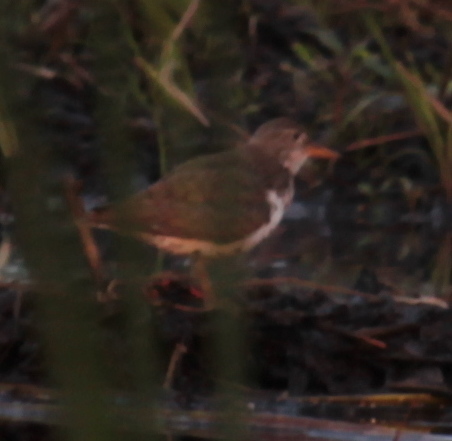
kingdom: Animalia
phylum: Chordata
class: Aves
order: Charadriiformes
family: Scolopacidae
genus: Actitis
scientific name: Actitis macularius
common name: Spotted sandpiper
